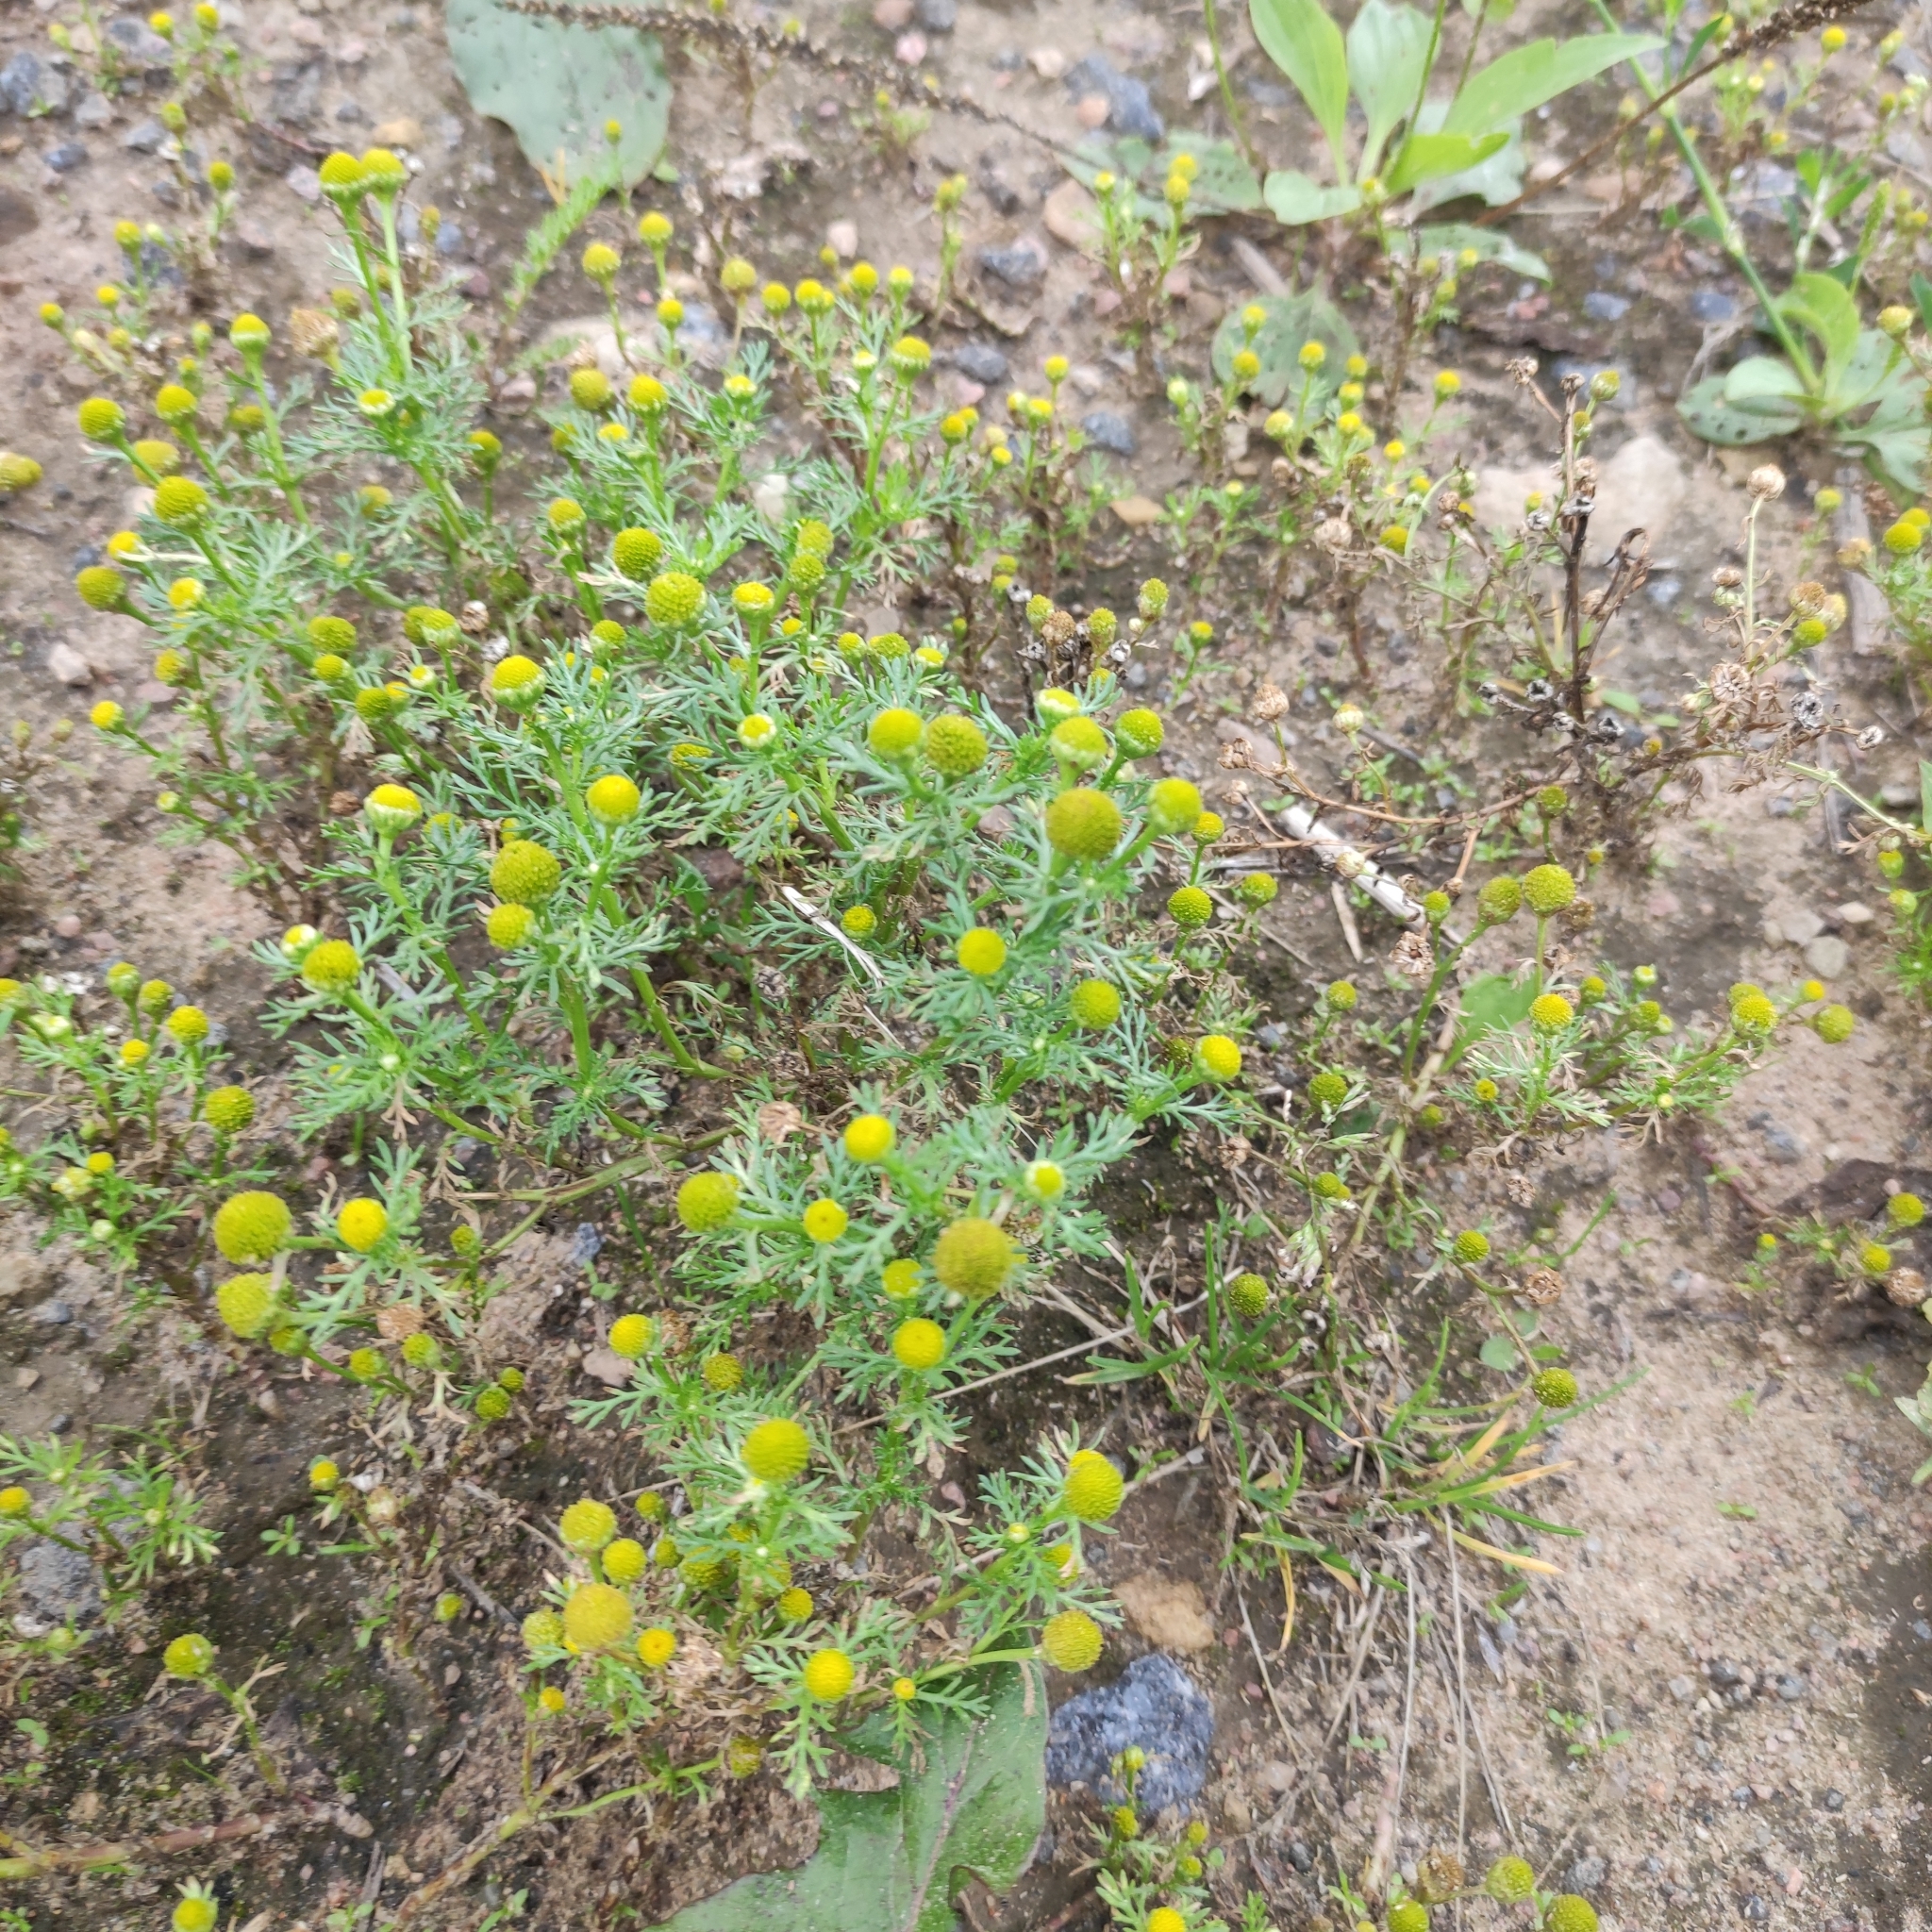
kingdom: Plantae
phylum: Tracheophyta
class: Magnoliopsida
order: Asterales
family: Asteraceae
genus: Matricaria
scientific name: Matricaria discoidea
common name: Disc mayweed
